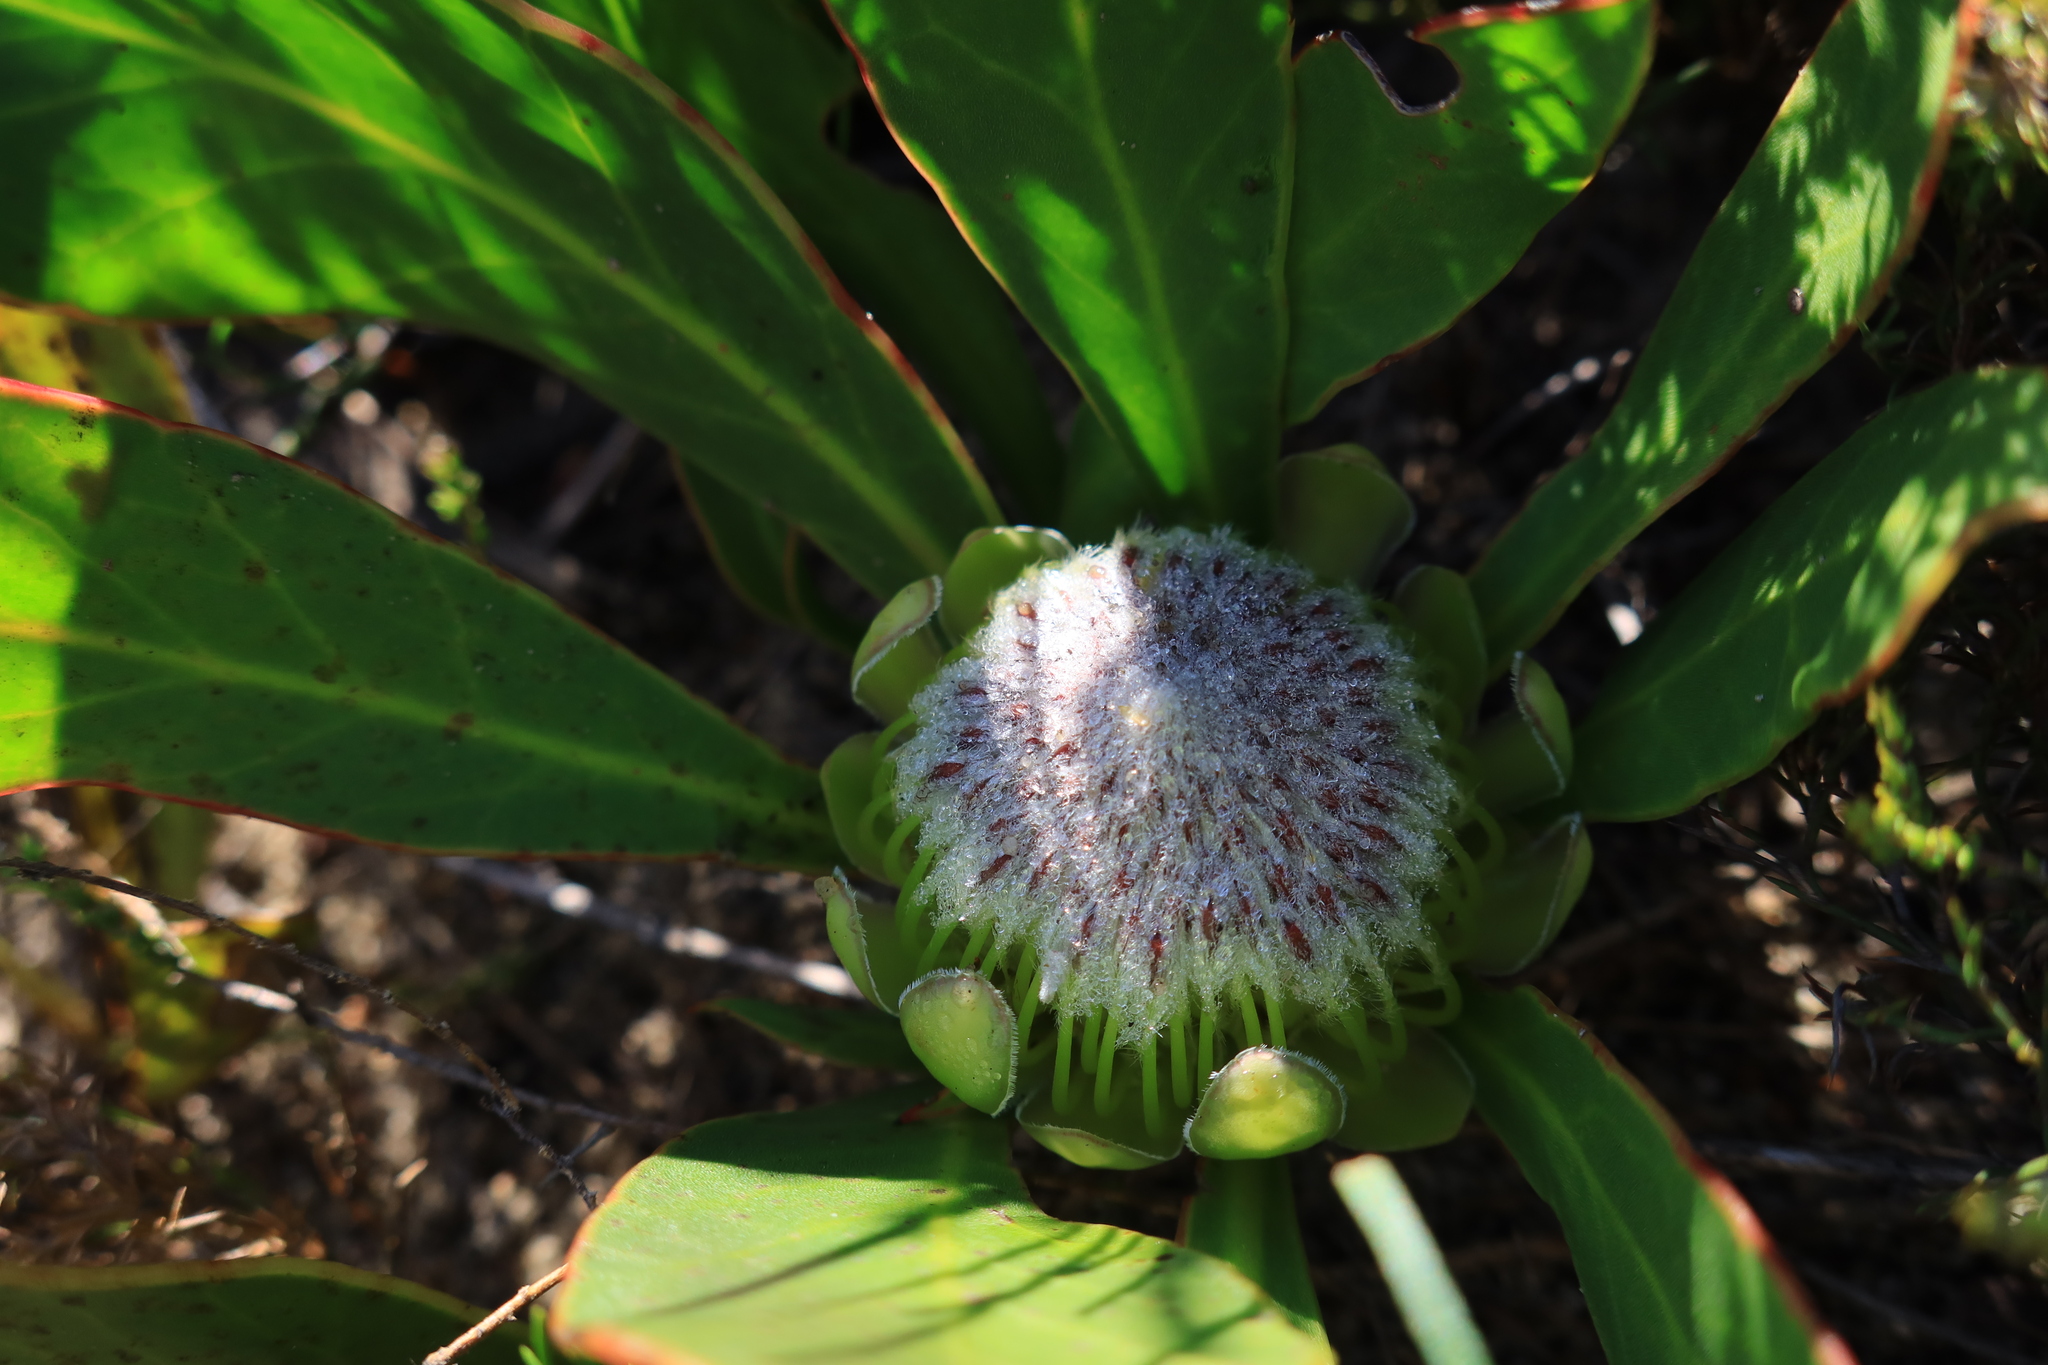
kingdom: Plantae
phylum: Tracheophyta
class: Magnoliopsida
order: Proteales
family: Proteaceae
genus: Protea
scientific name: Protea acaulos
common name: Common ground sugarbush
